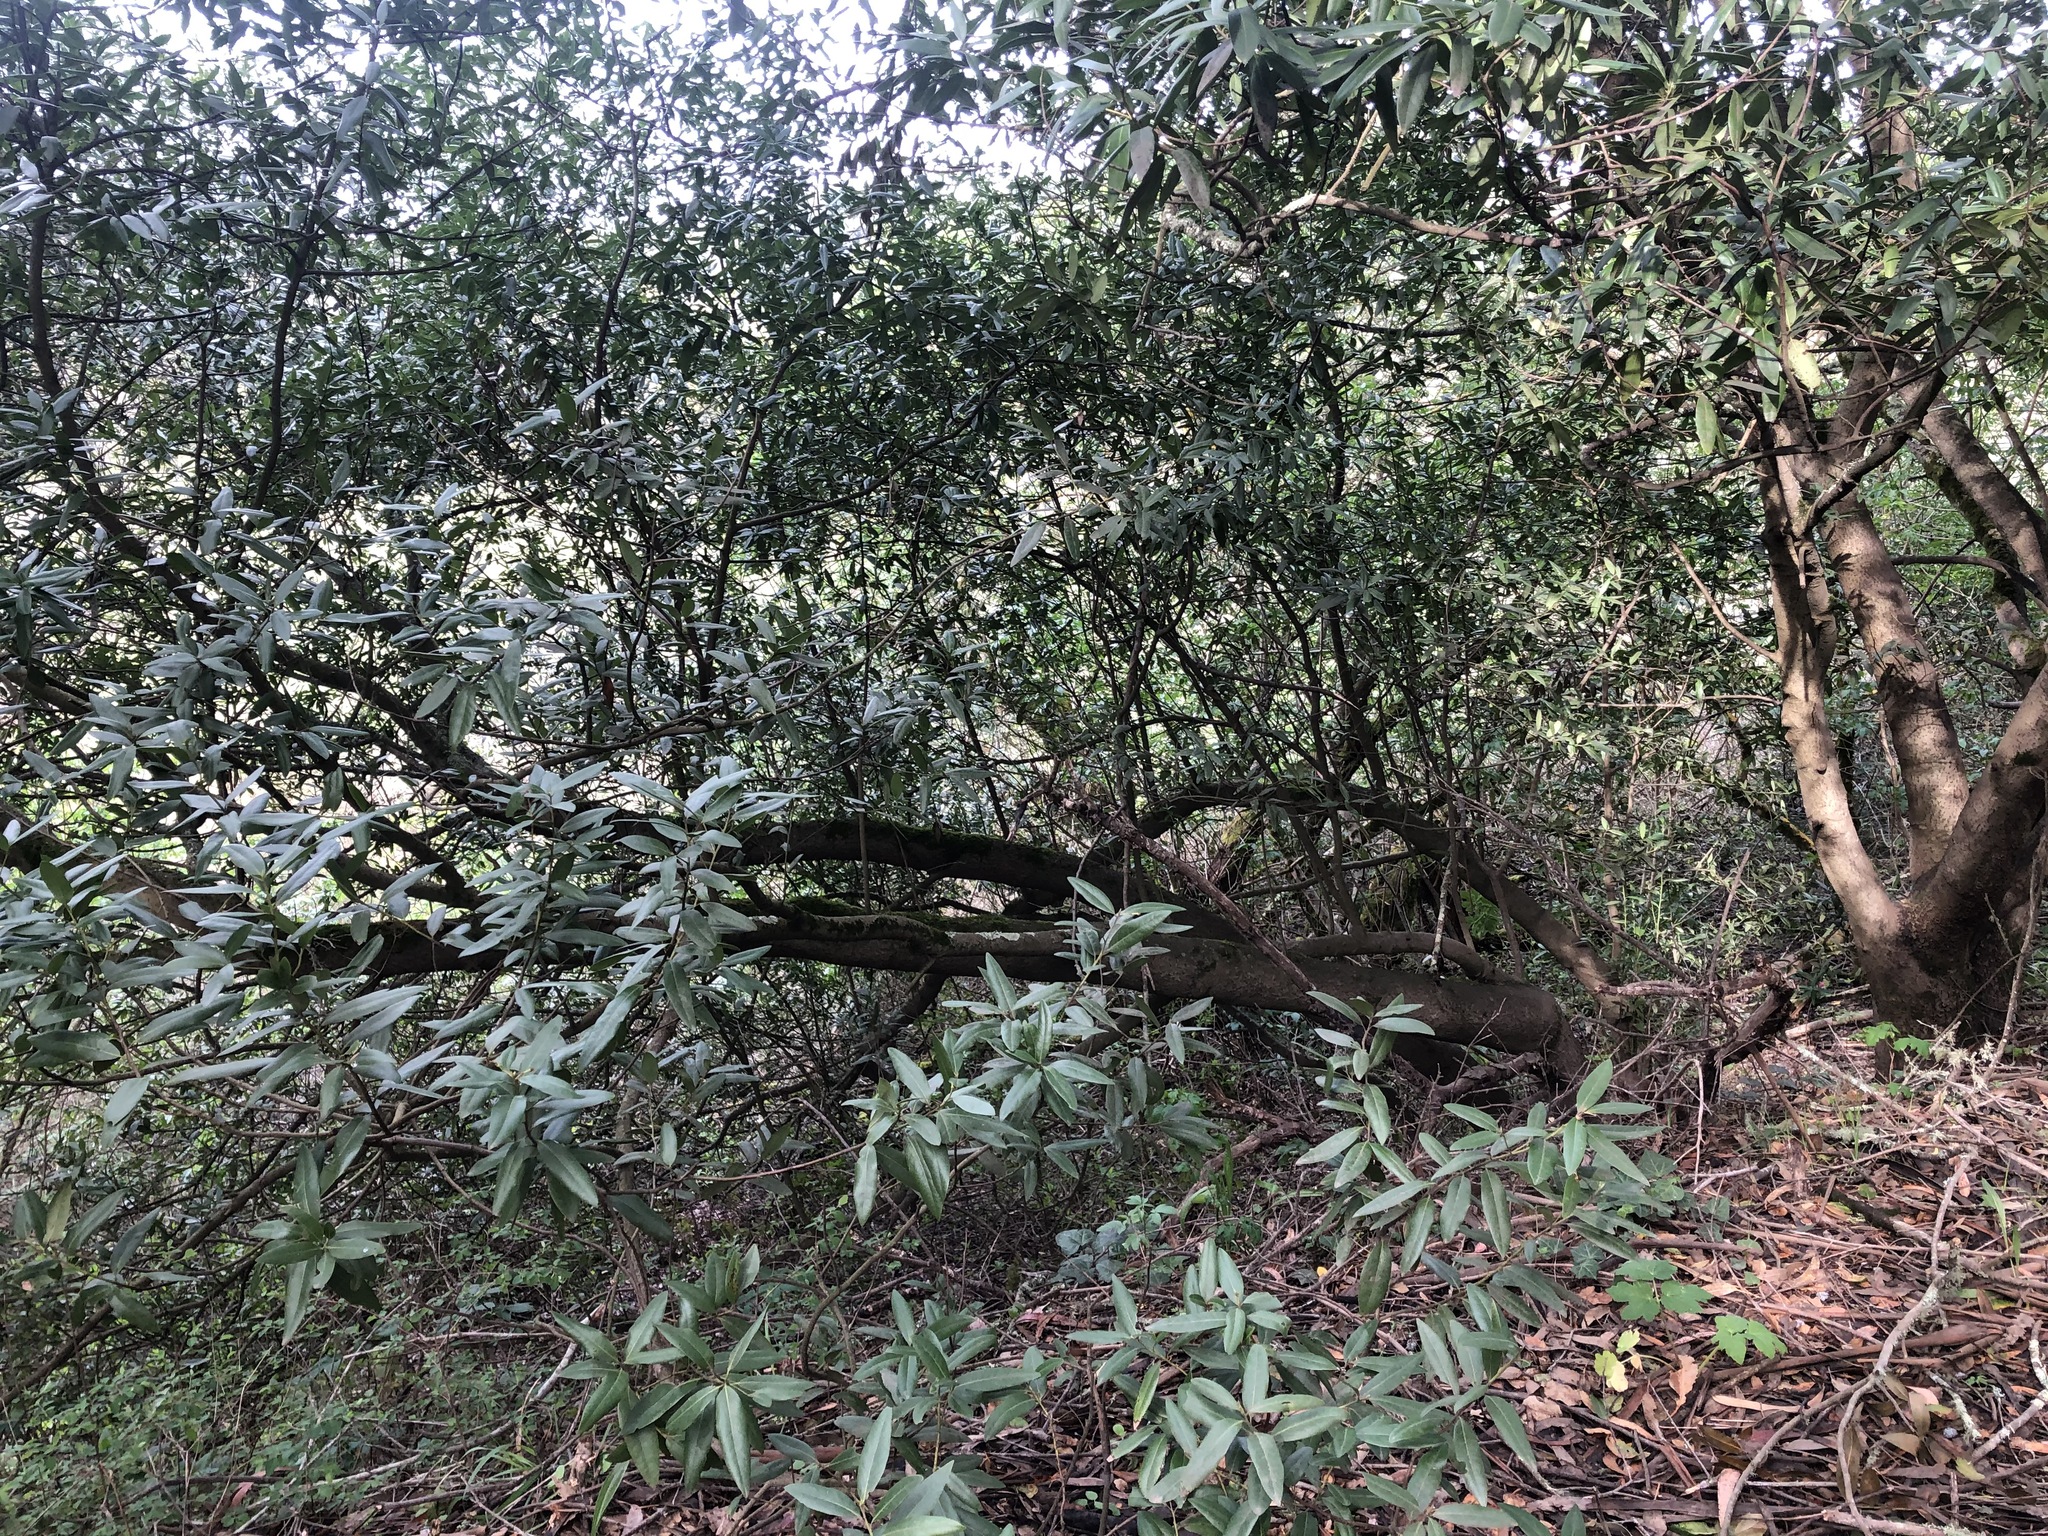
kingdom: Plantae
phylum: Tracheophyta
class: Magnoliopsida
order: Laurales
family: Lauraceae
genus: Umbellularia
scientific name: Umbellularia californica
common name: California bay
